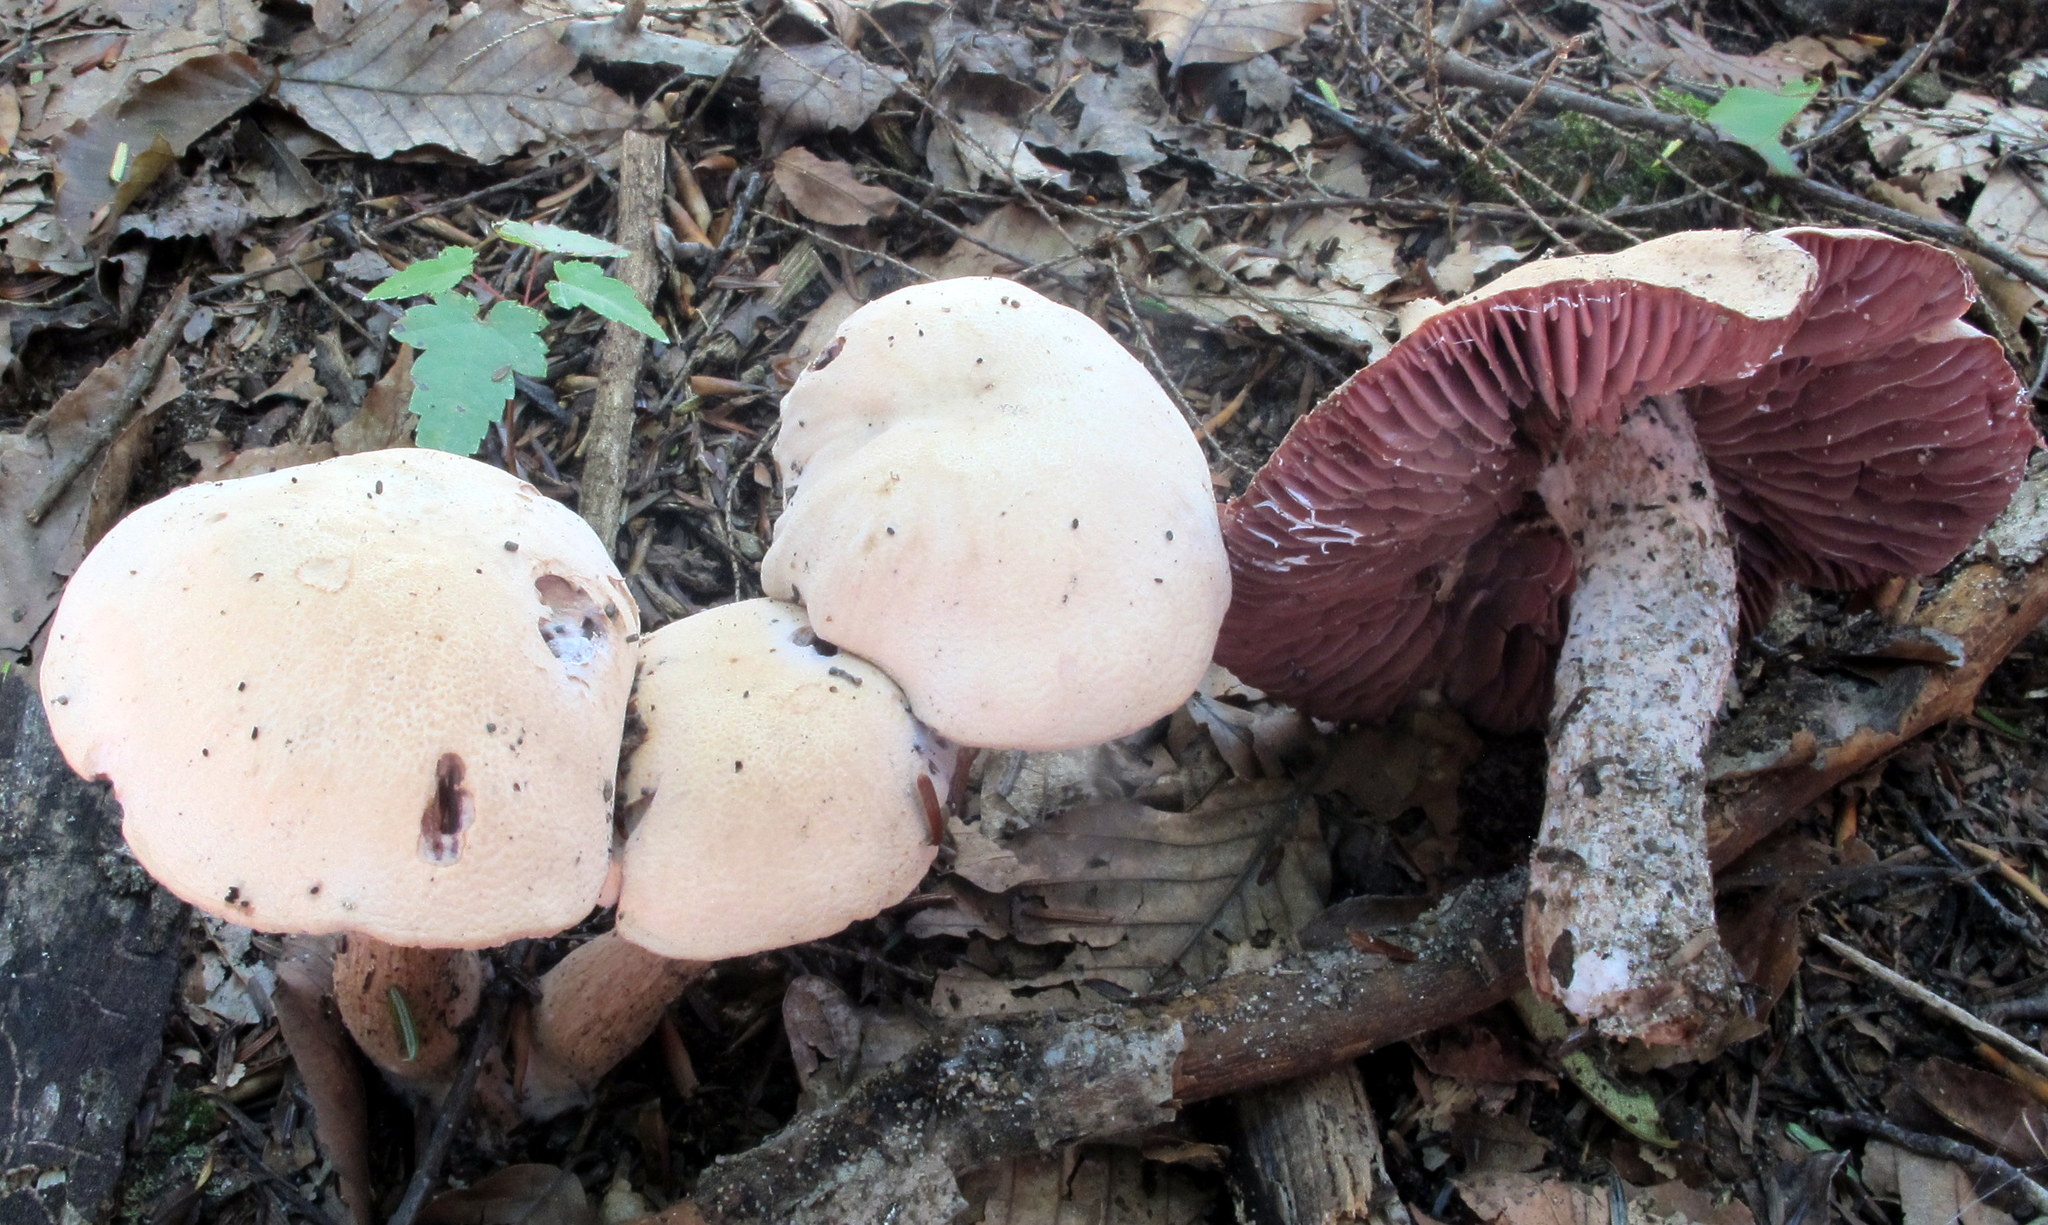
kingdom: Fungi
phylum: Basidiomycota
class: Agaricomycetes
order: Agaricales
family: Hydnangiaceae
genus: Laccaria
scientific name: Laccaria ochropurpurea
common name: Purple laccaria
